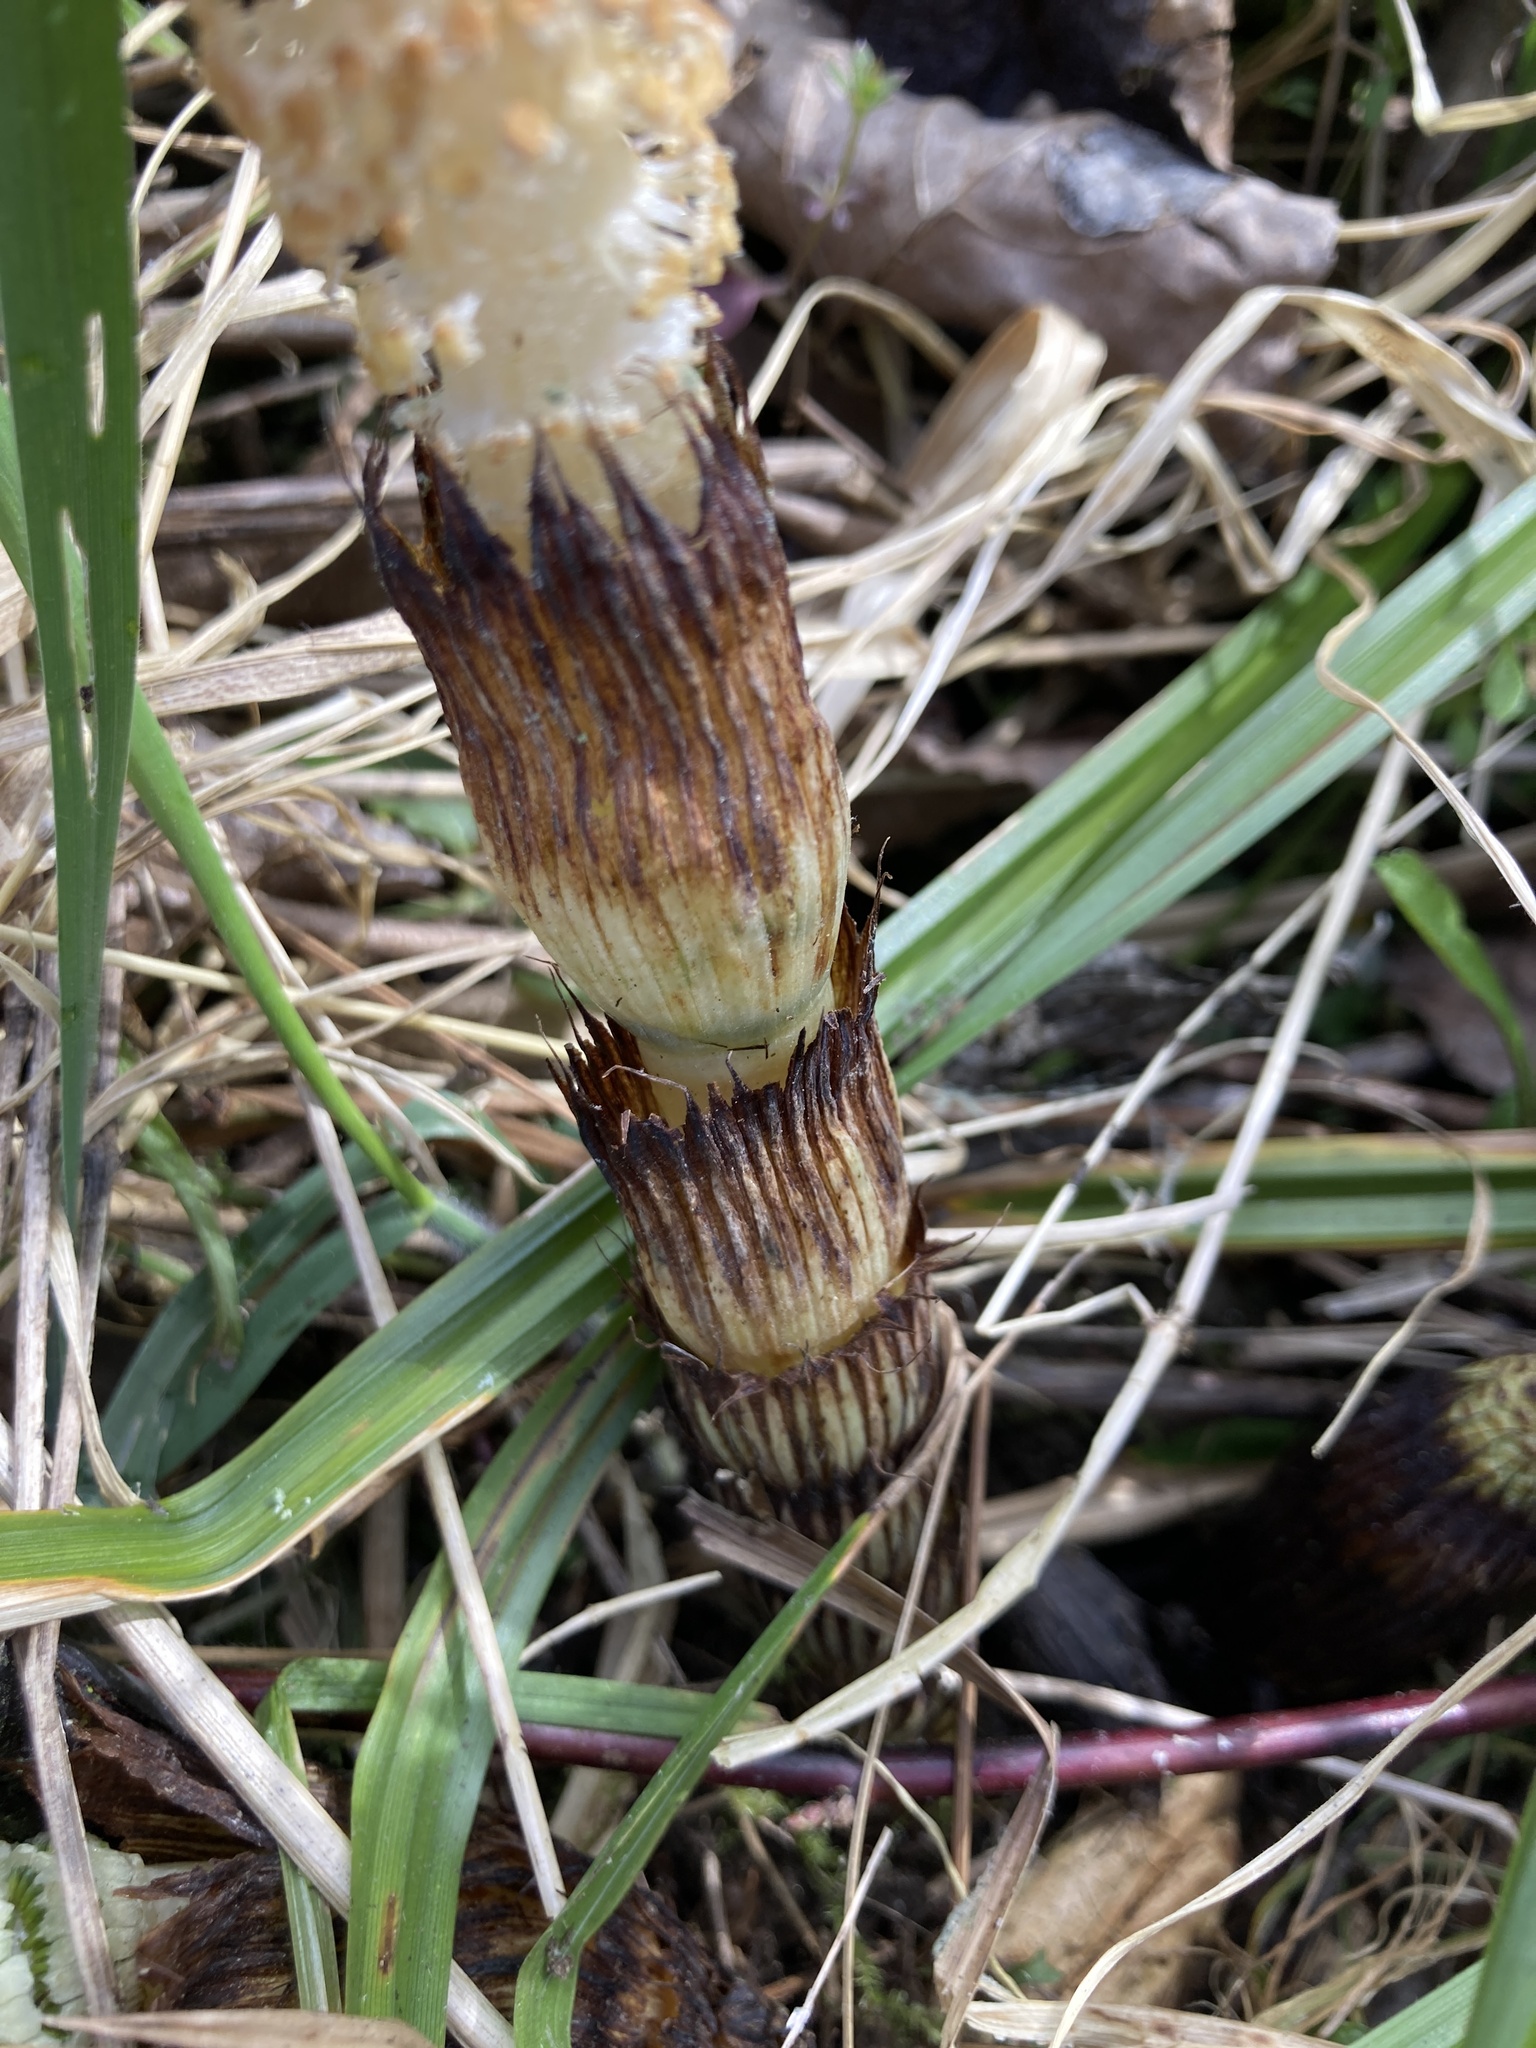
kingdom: Plantae
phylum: Tracheophyta
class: Polypodiopsida
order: Equisetales
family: Equisetaceae
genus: Equisetum
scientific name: Equisetum telmateia
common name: Great horsetail
